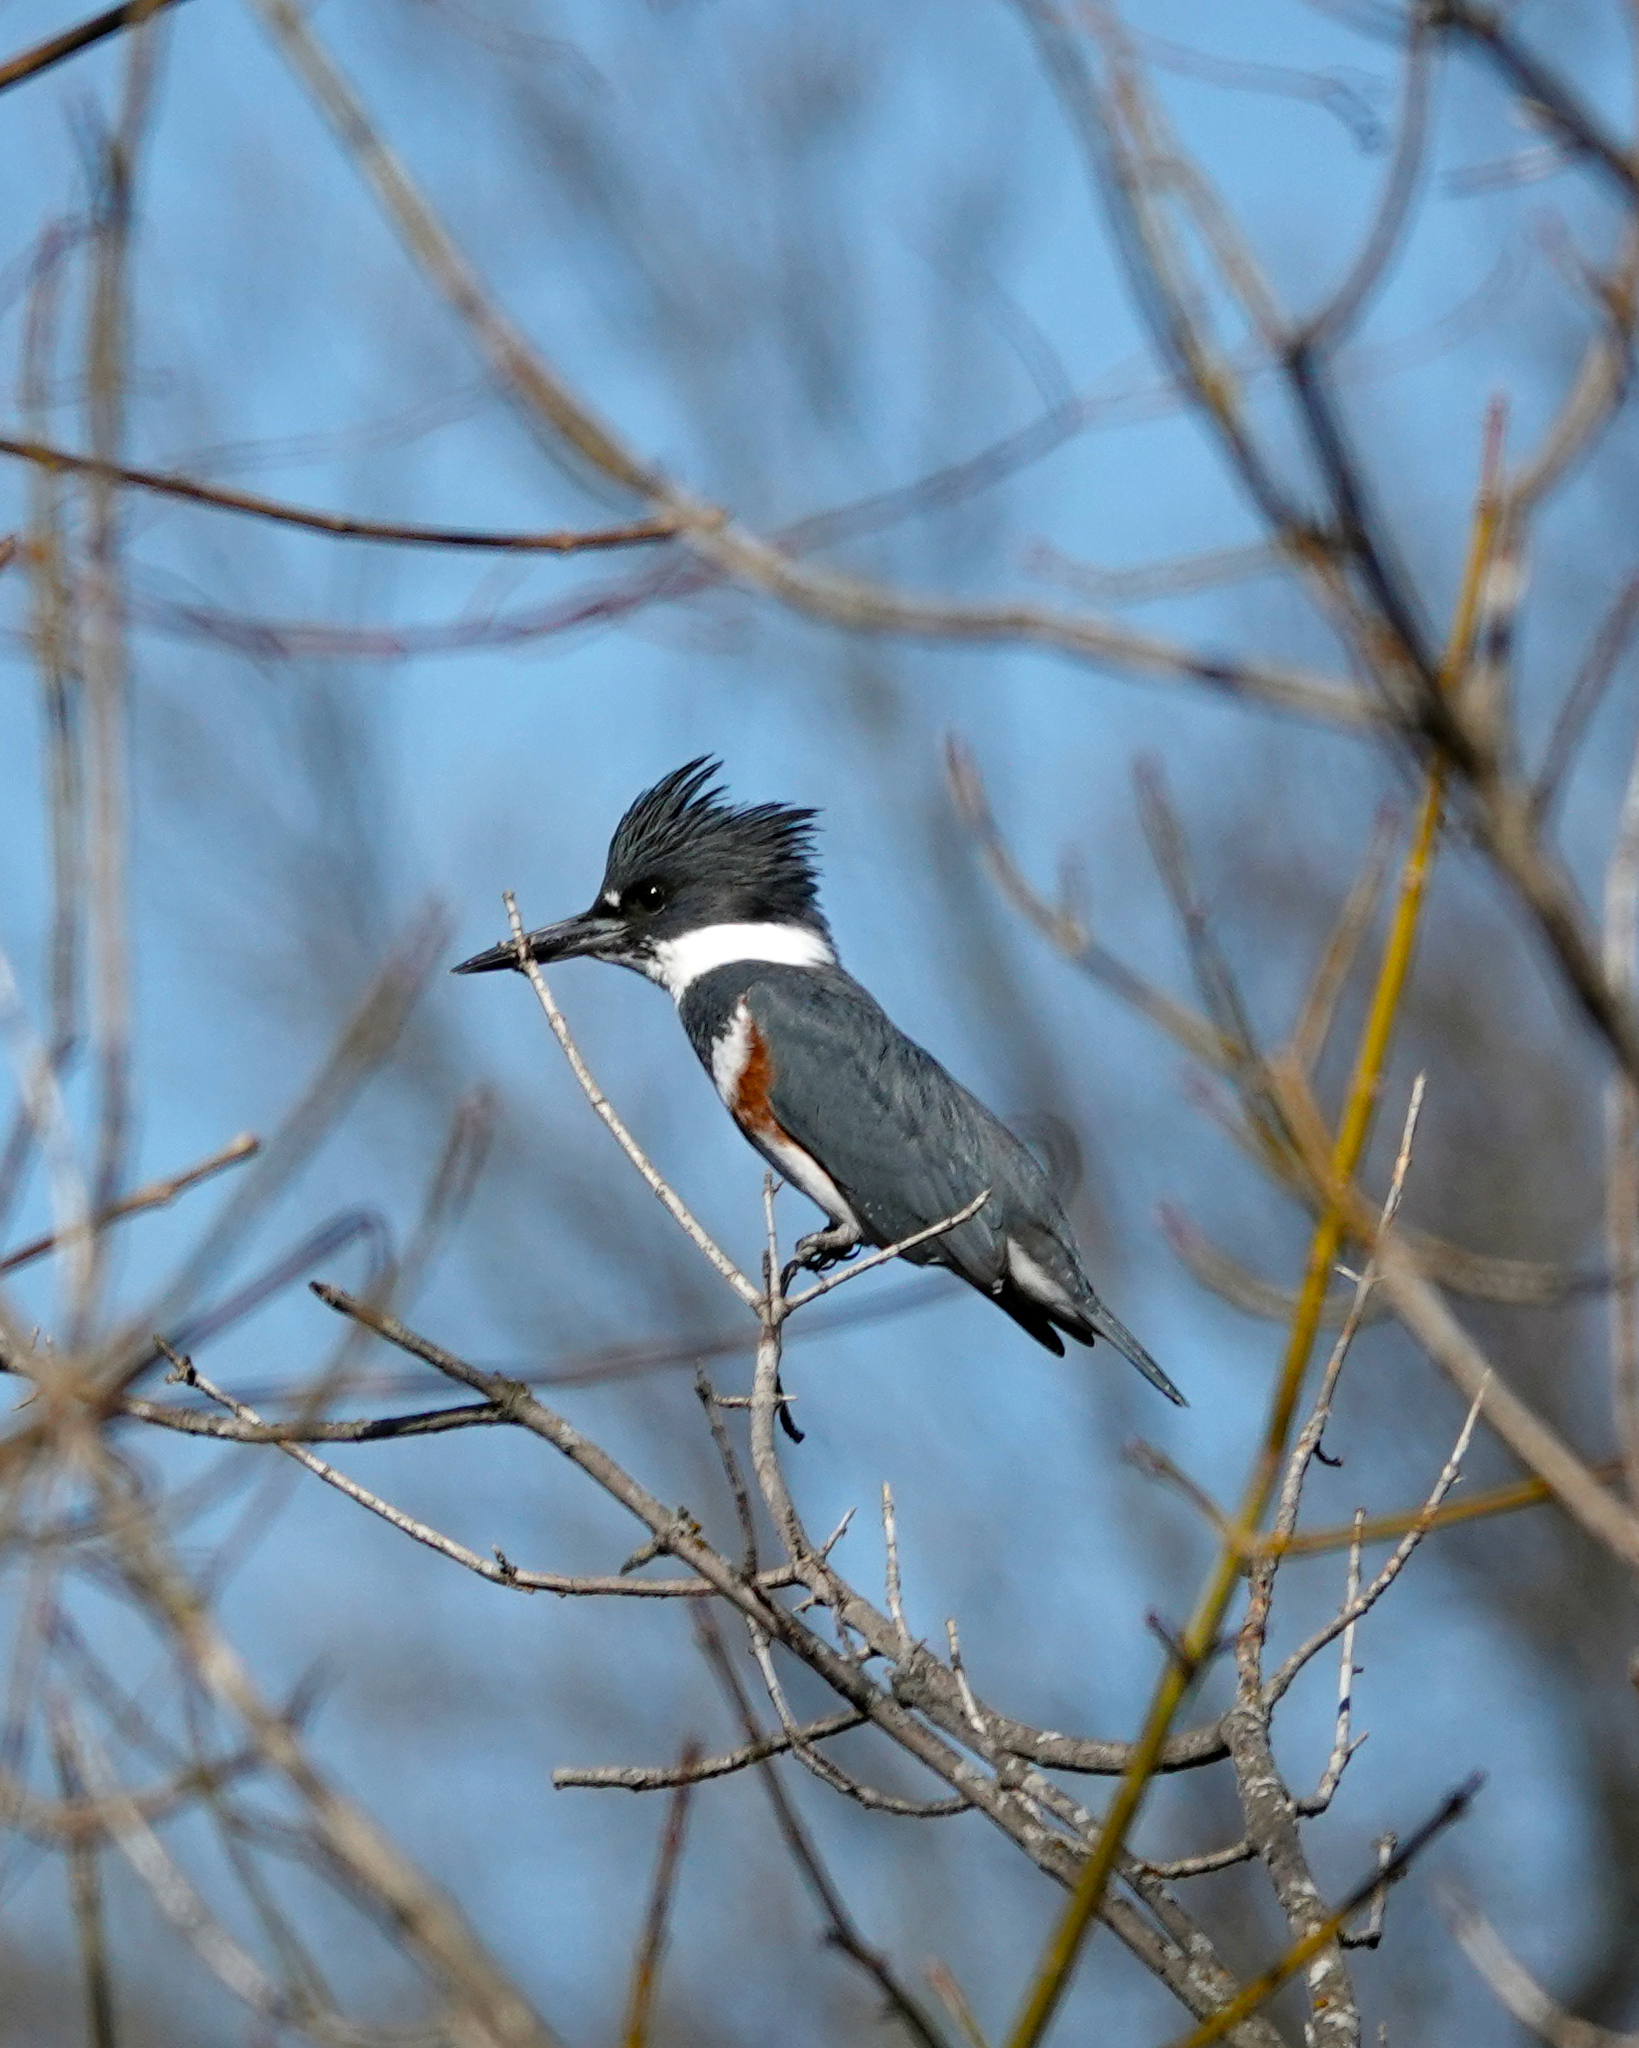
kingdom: Animalia
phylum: Chordata
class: Aves
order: Coraciiformes
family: Alcedinidae
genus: Megaceryle
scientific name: Megaceryle alcyon
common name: Belted kingfisher
